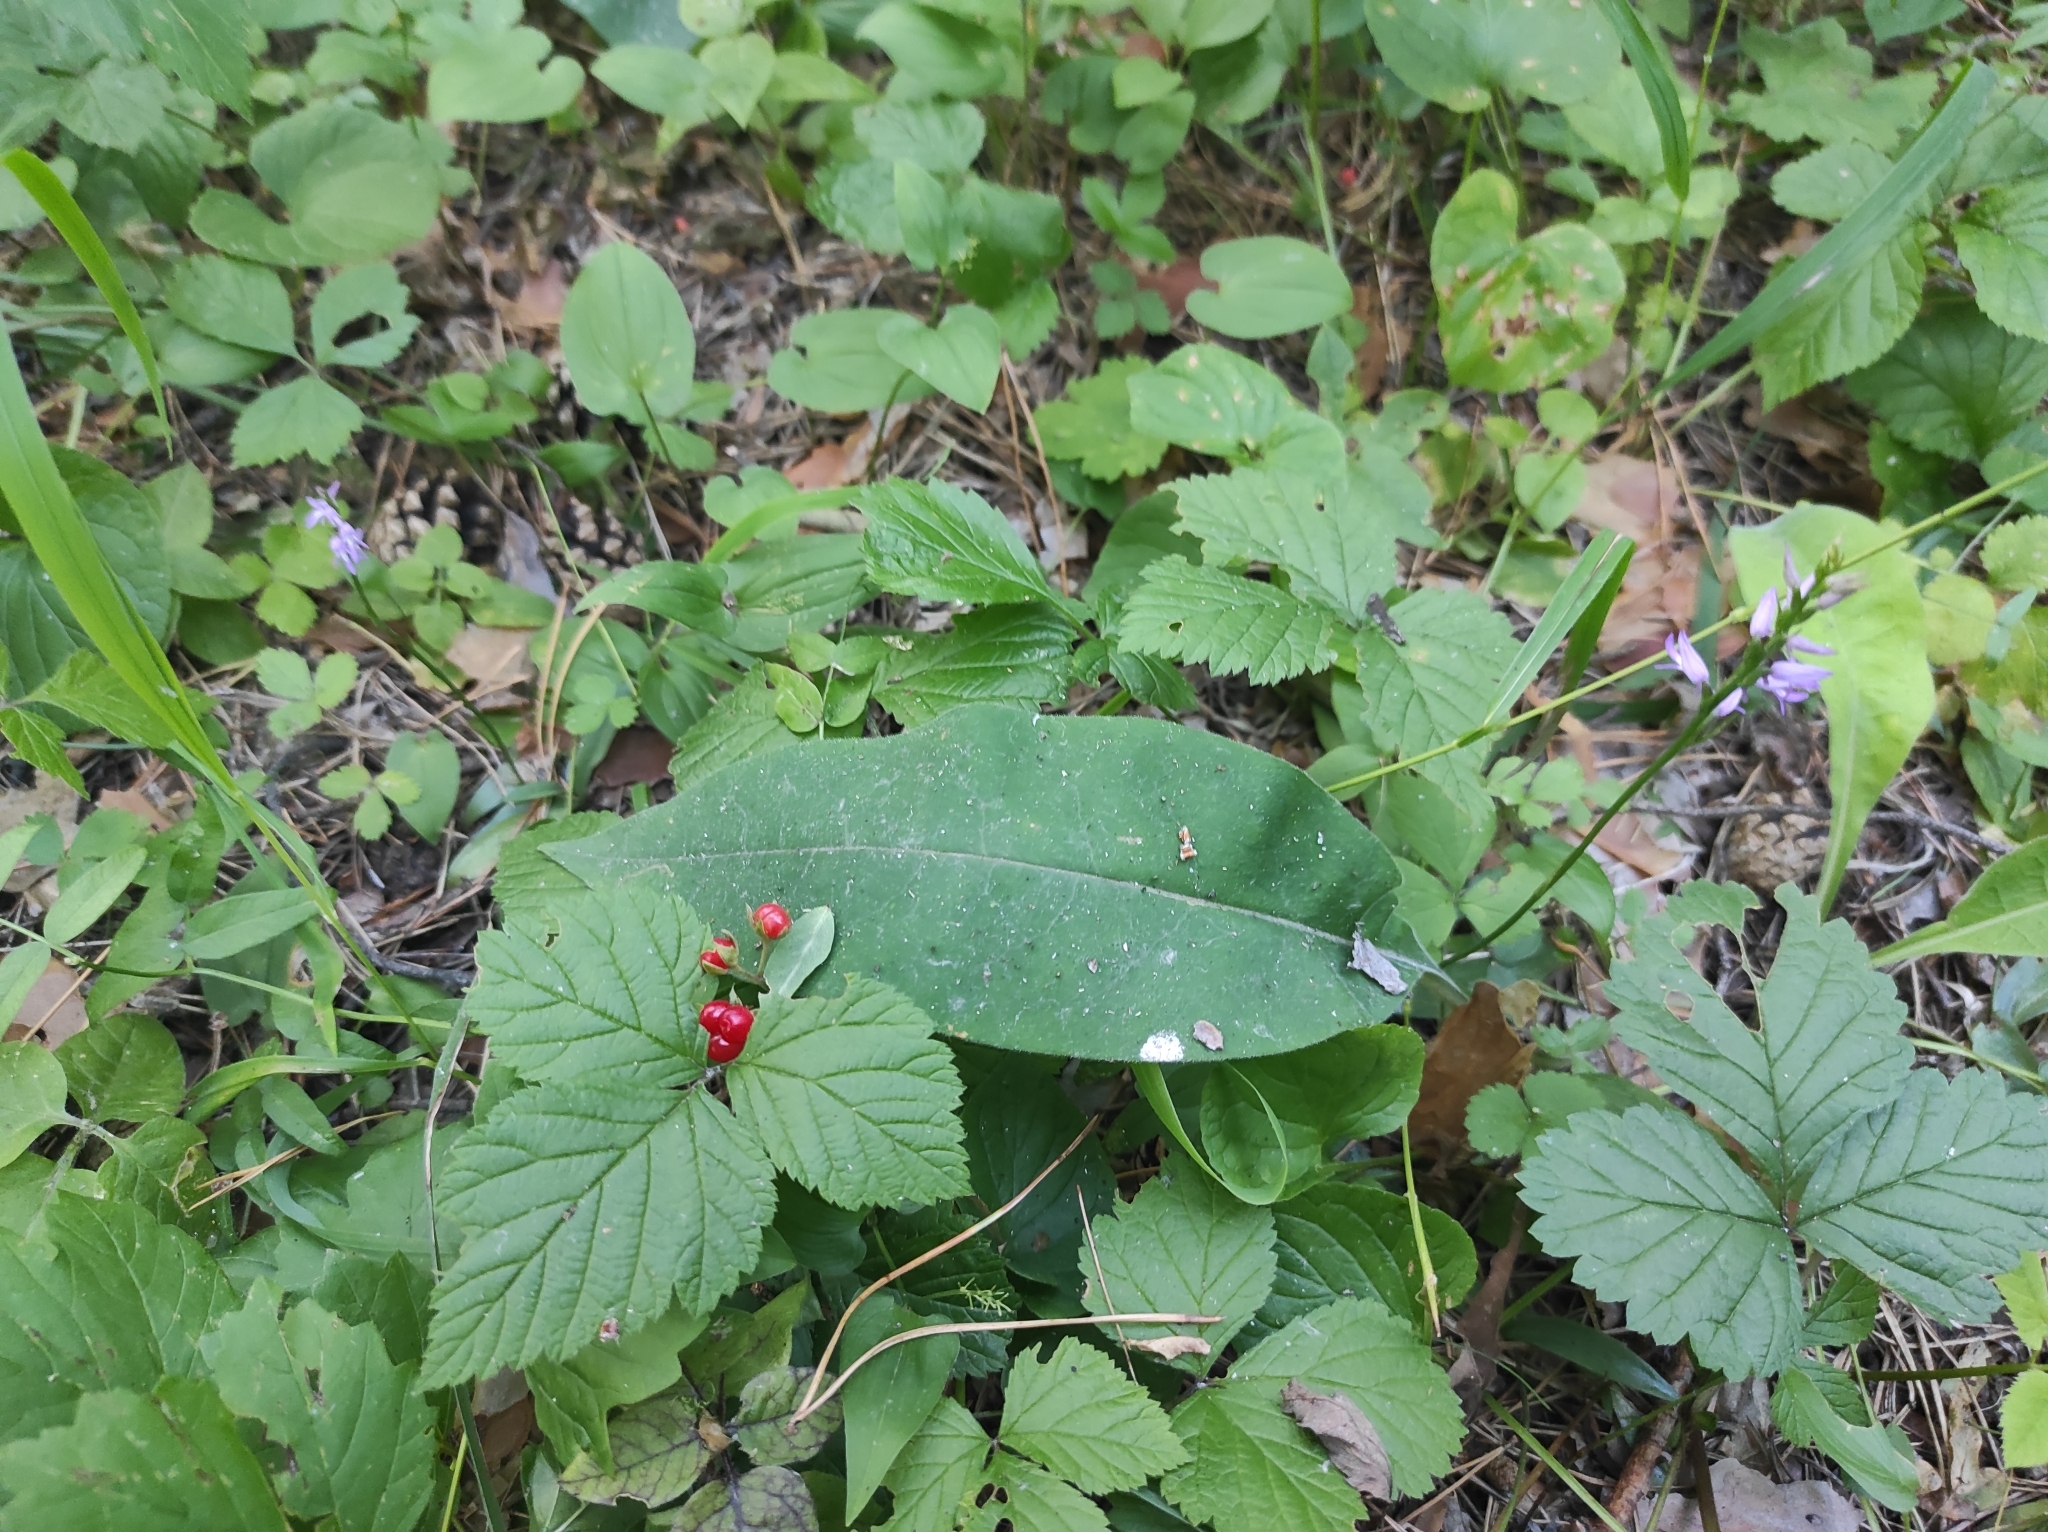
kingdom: Plantae
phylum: Tracheophyta
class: Magnoliopsida
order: Boraginales
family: Boraginaceae
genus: Pulmonaria
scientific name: Pulmonaria mollis
